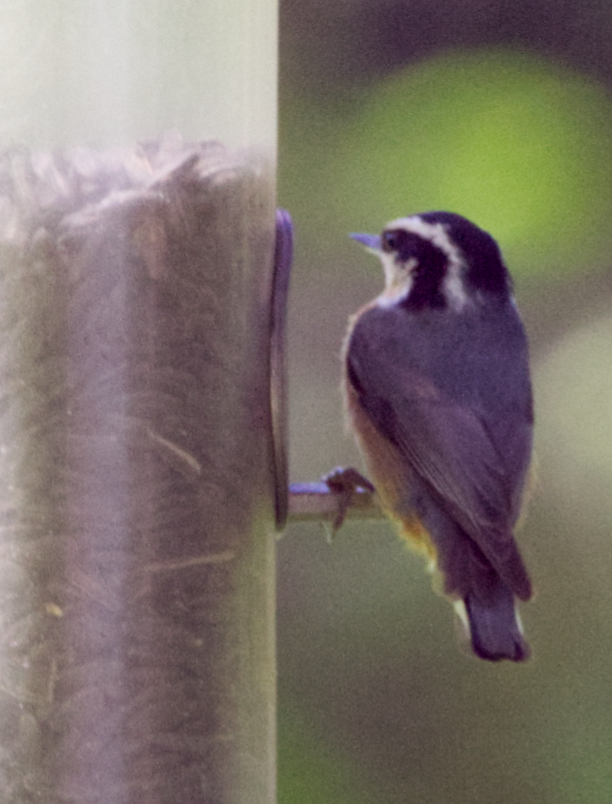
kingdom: Animalia
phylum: Chordata
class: Aves
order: Passeriformes
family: Sittidae
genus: Sitta
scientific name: Sitta canadensis
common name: Red-breasted nuthatch
